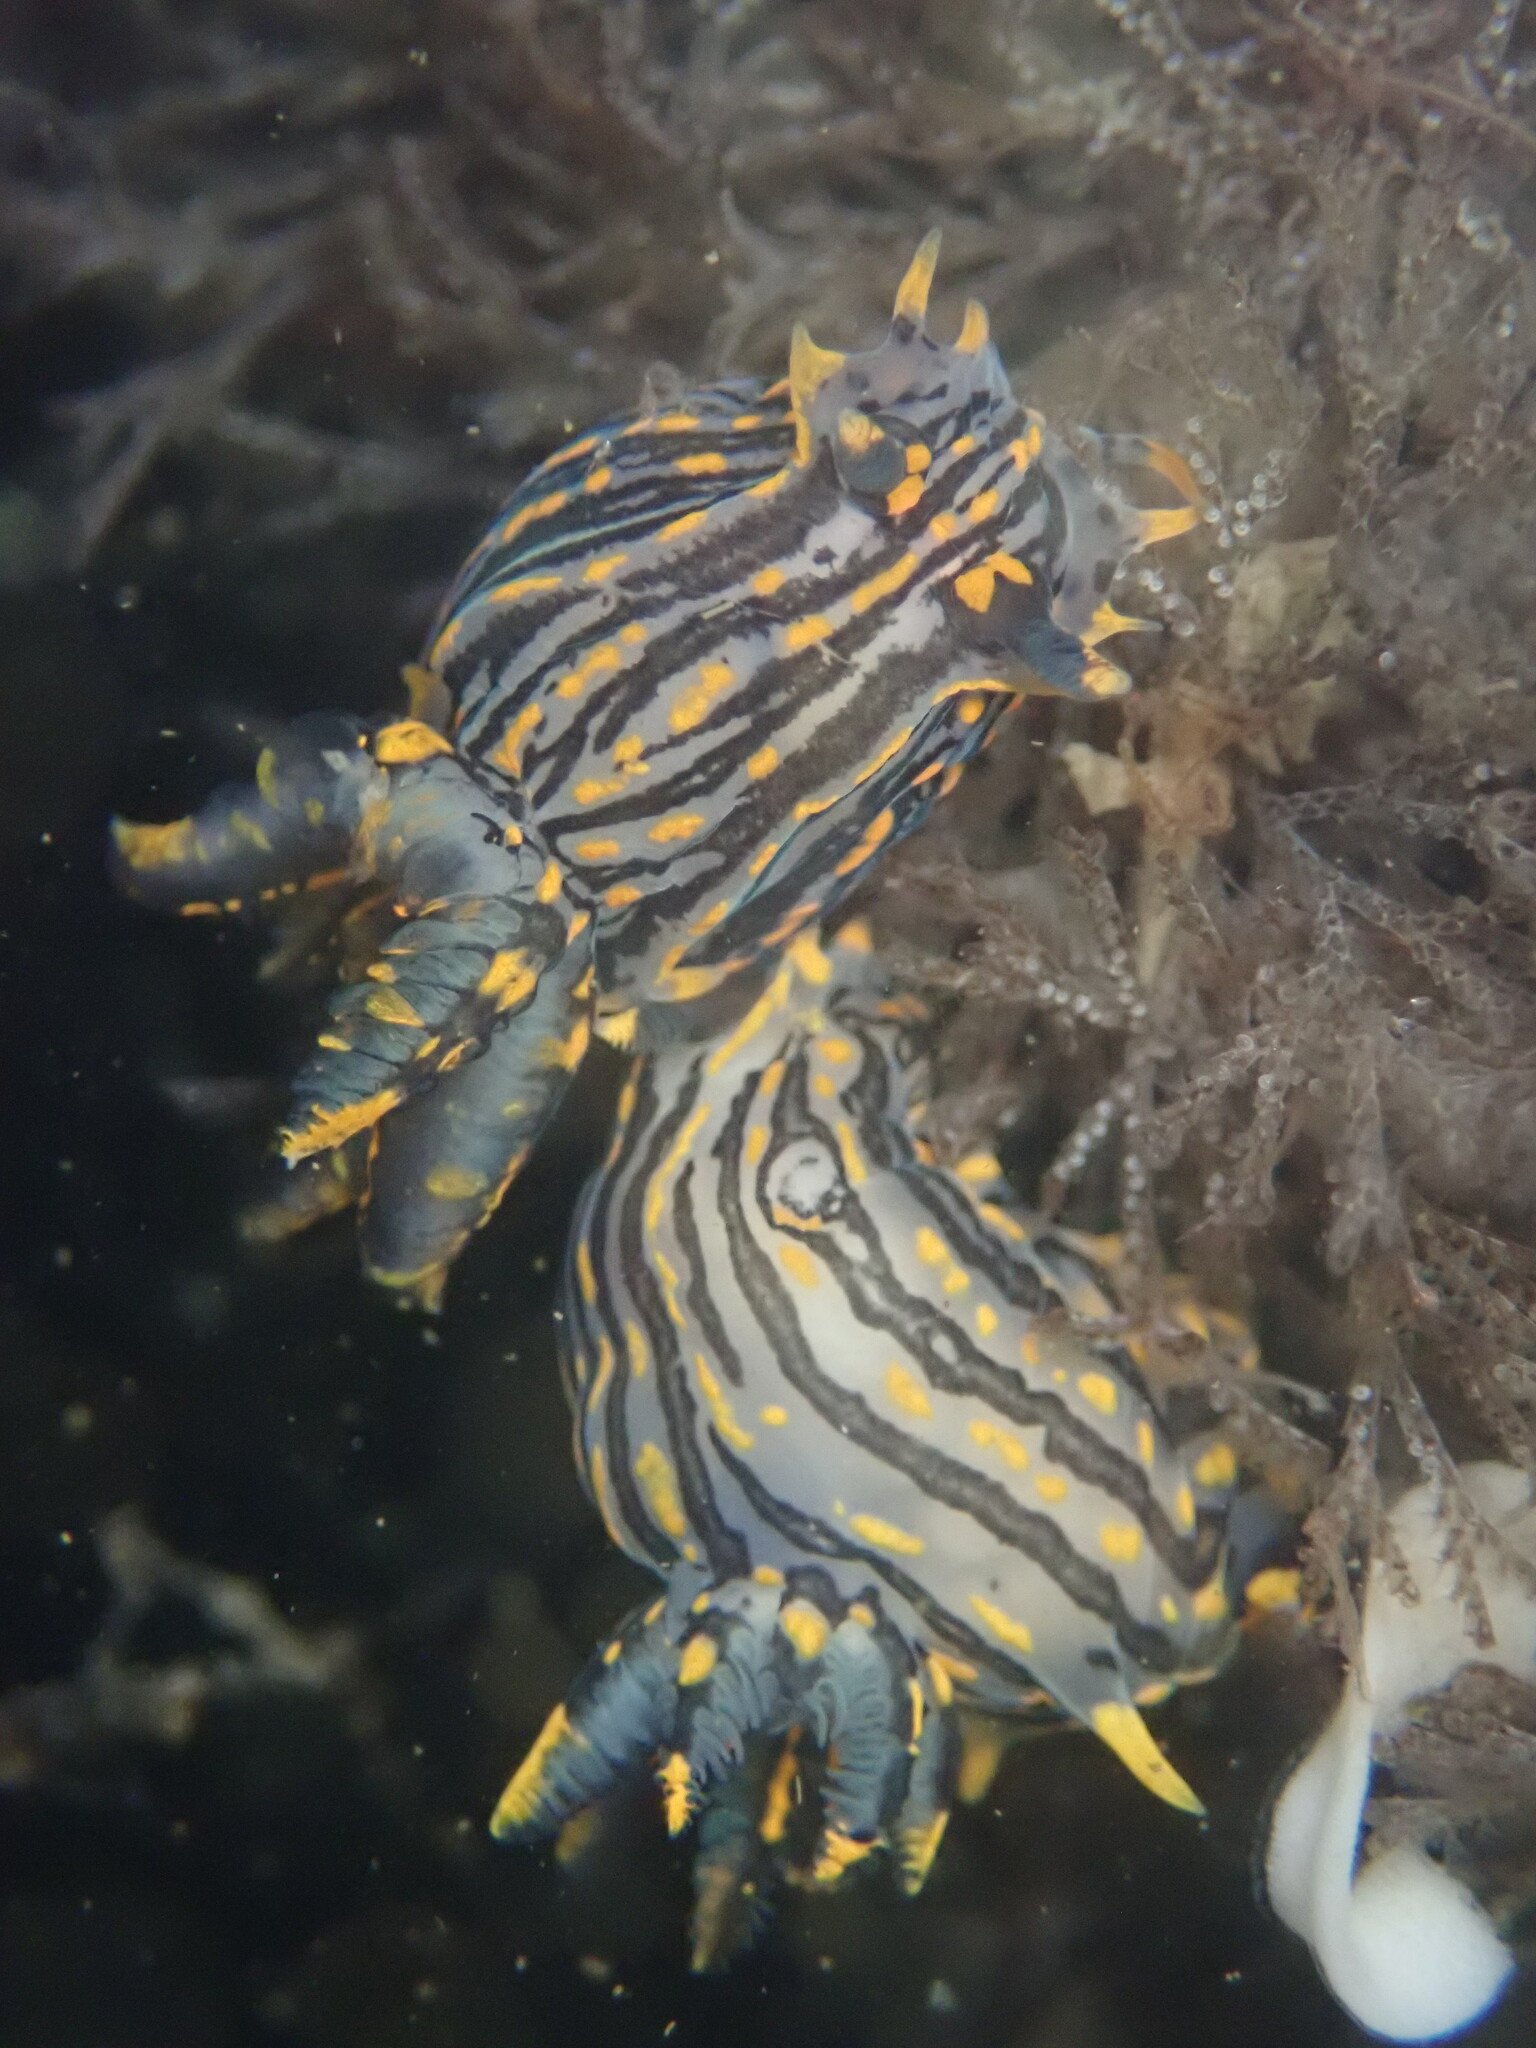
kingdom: Animalia
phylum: Mollusca
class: Gastropoda
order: Nudibranchia
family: Polyceridae
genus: Polycera
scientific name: Polycera atra
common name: Orange-spike polycera
